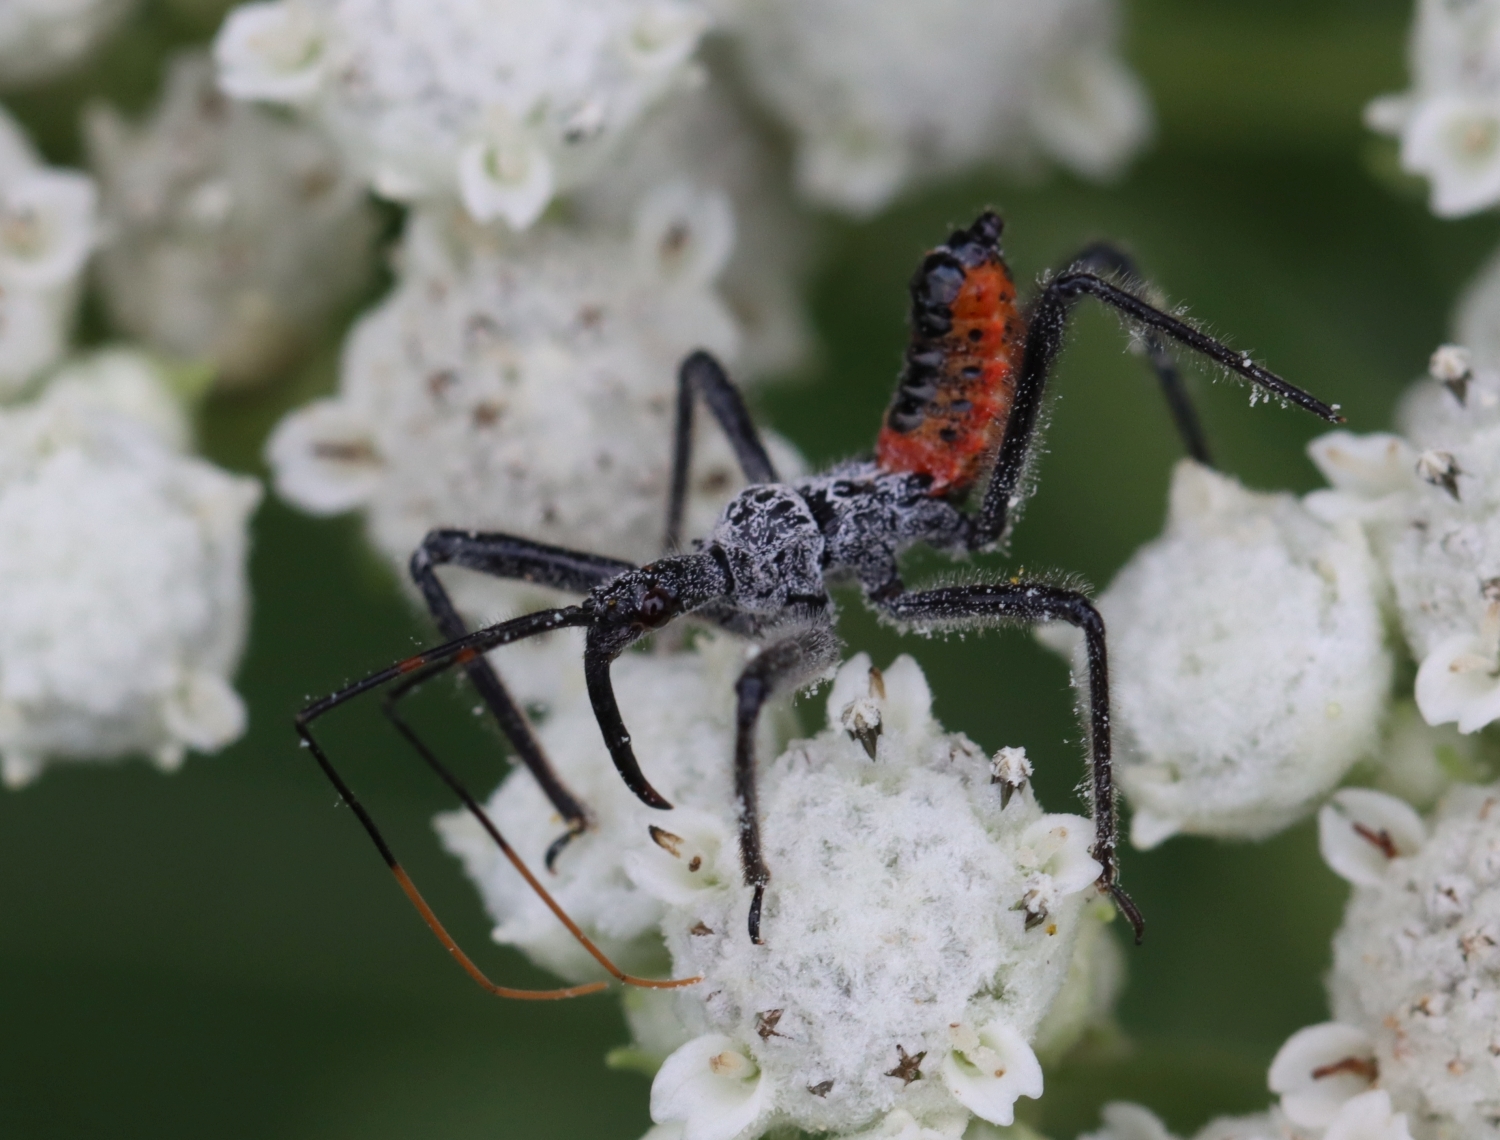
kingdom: Animalia
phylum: Arthropoda
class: Insecta
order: Hemiptera
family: Reduviidae
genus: Arilus
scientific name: Arilus cristatus
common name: North american wheel bug
